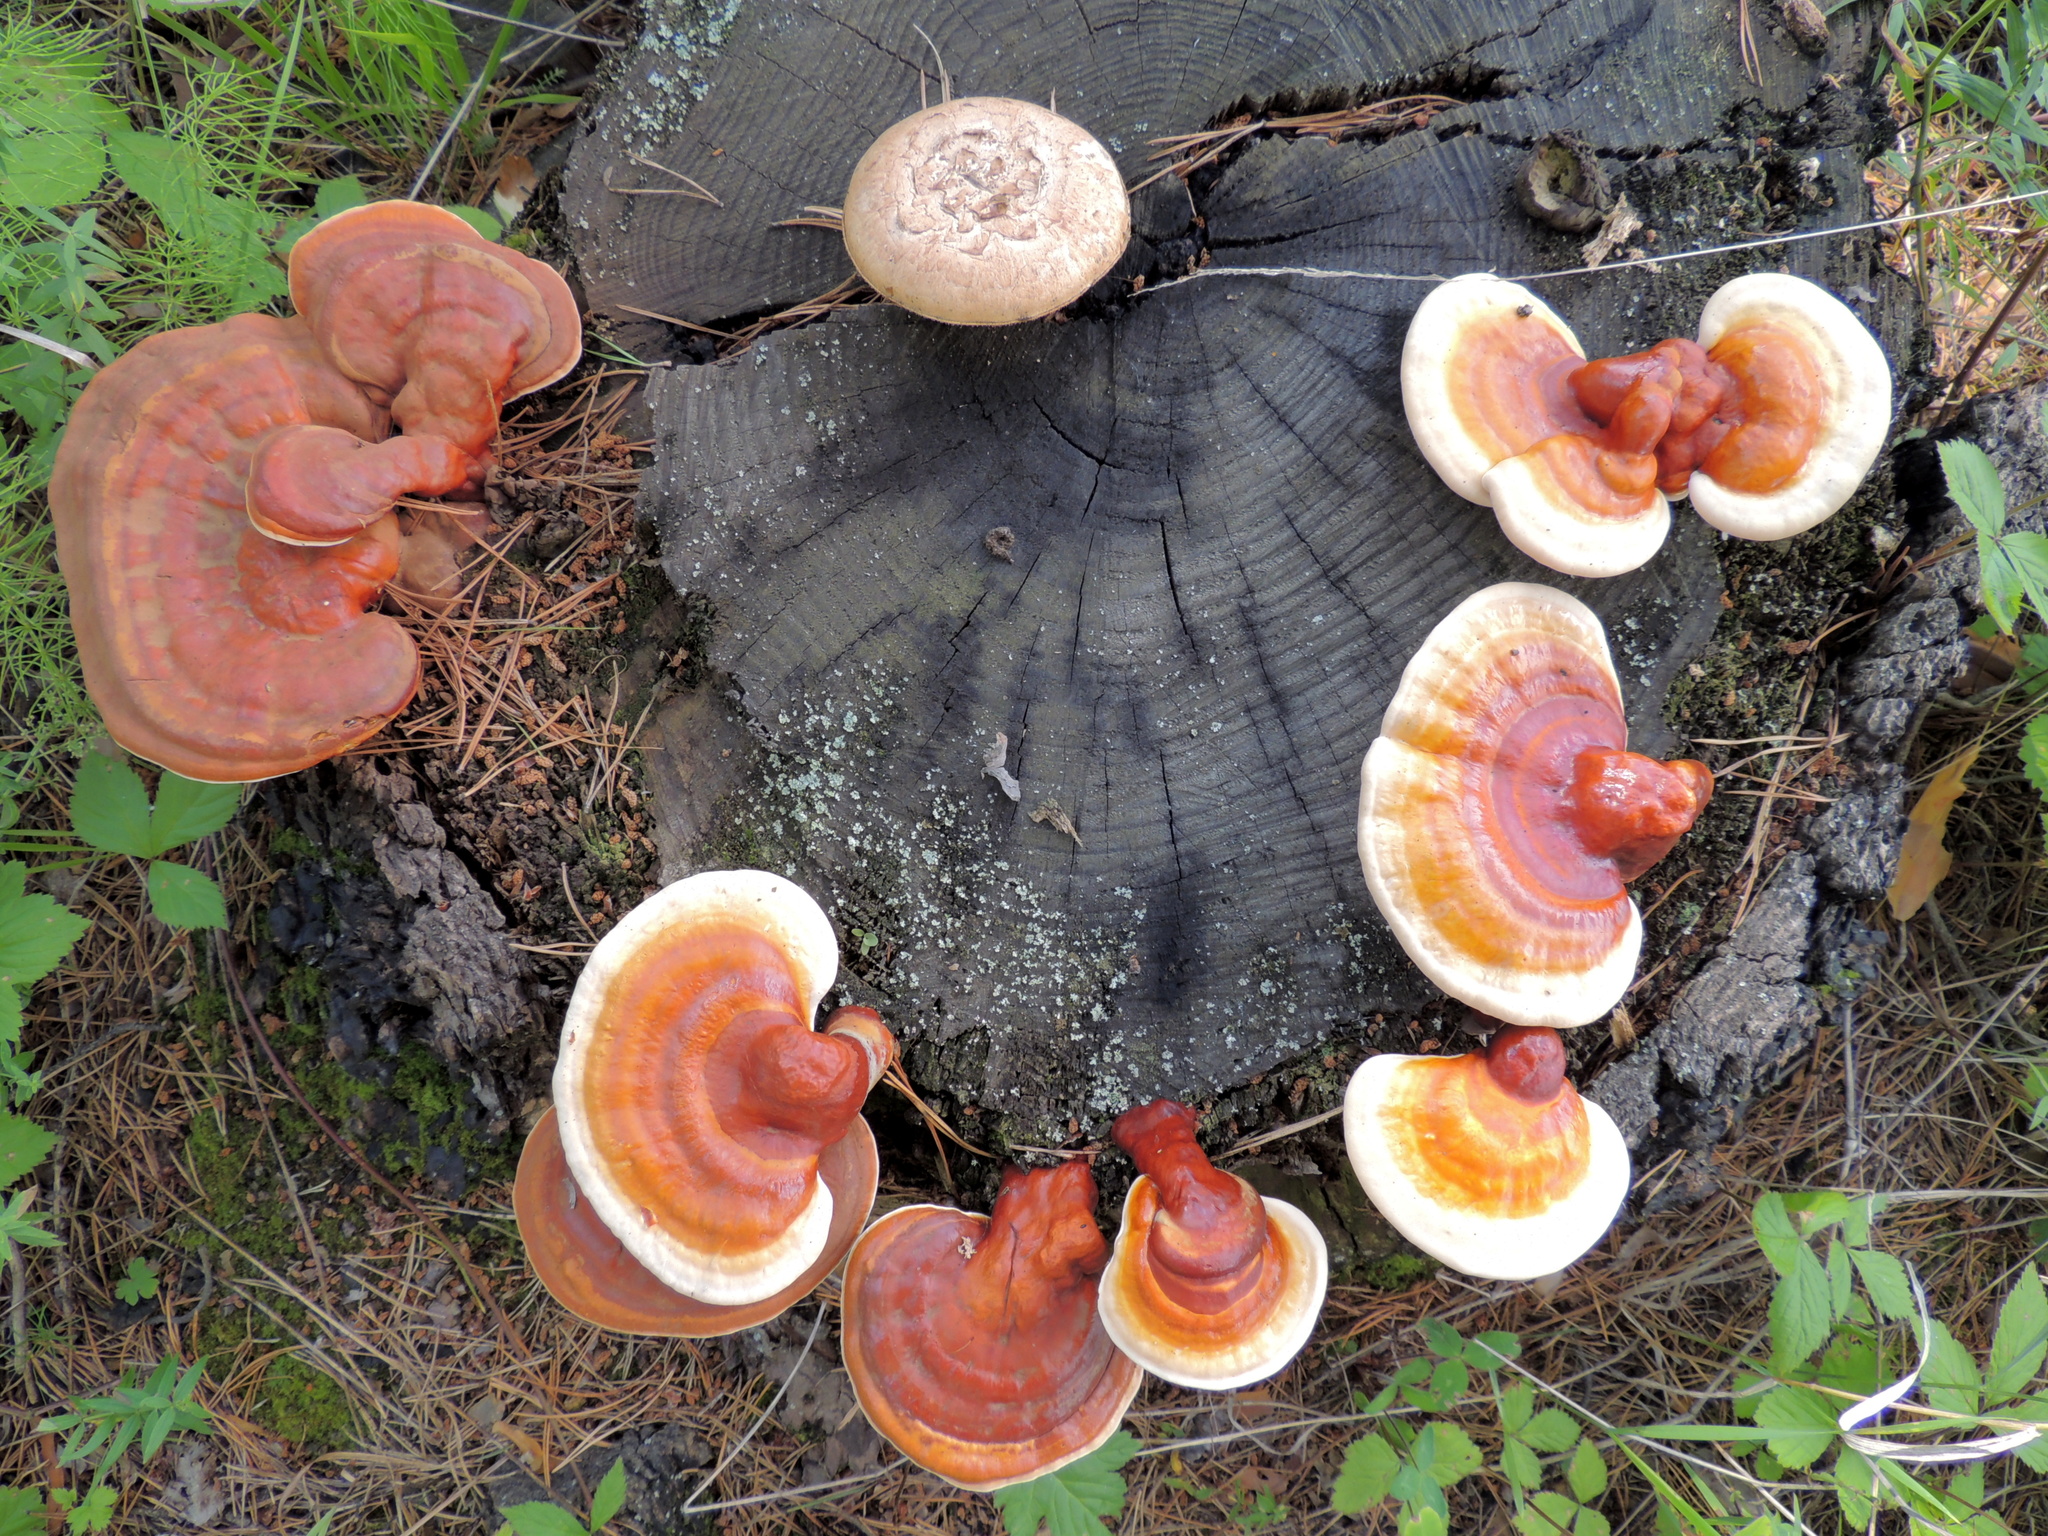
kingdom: Fungi
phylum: Basidiomycota
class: Agaricomycetes
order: Gloeophyllales
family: Gloeophyllaceae
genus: Neolentinus
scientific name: Neolentinus lepideus
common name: Scaly sawgill
